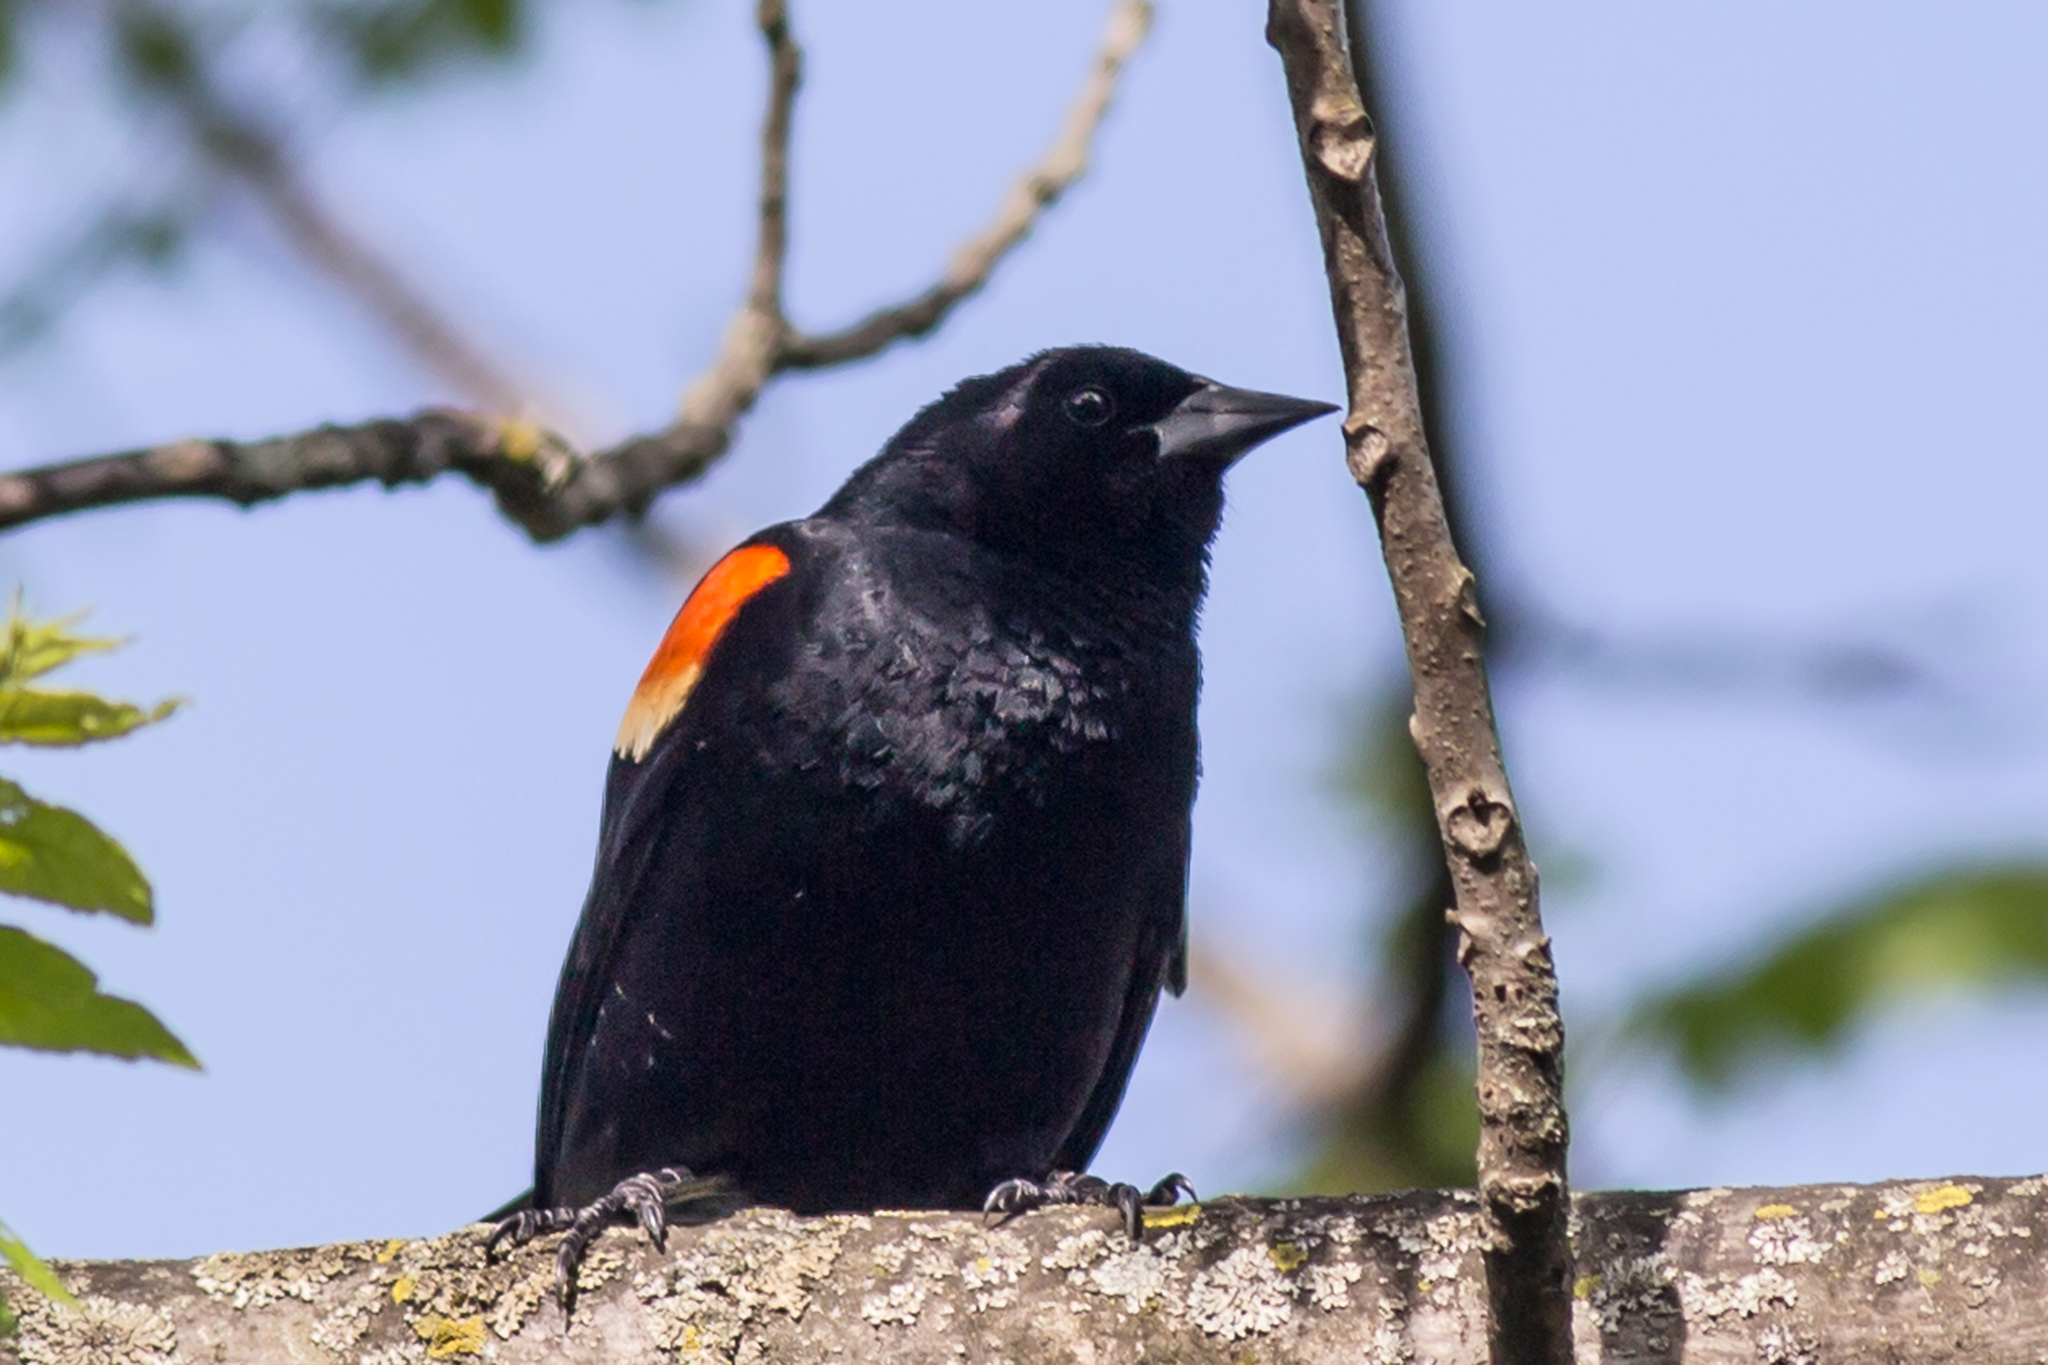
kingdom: Animalia
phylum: Chordata
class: Aves
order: Passeriformes
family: Icteridae
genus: Agelaius
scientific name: Agelaius phoeniceus
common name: Red-winged blackbird
